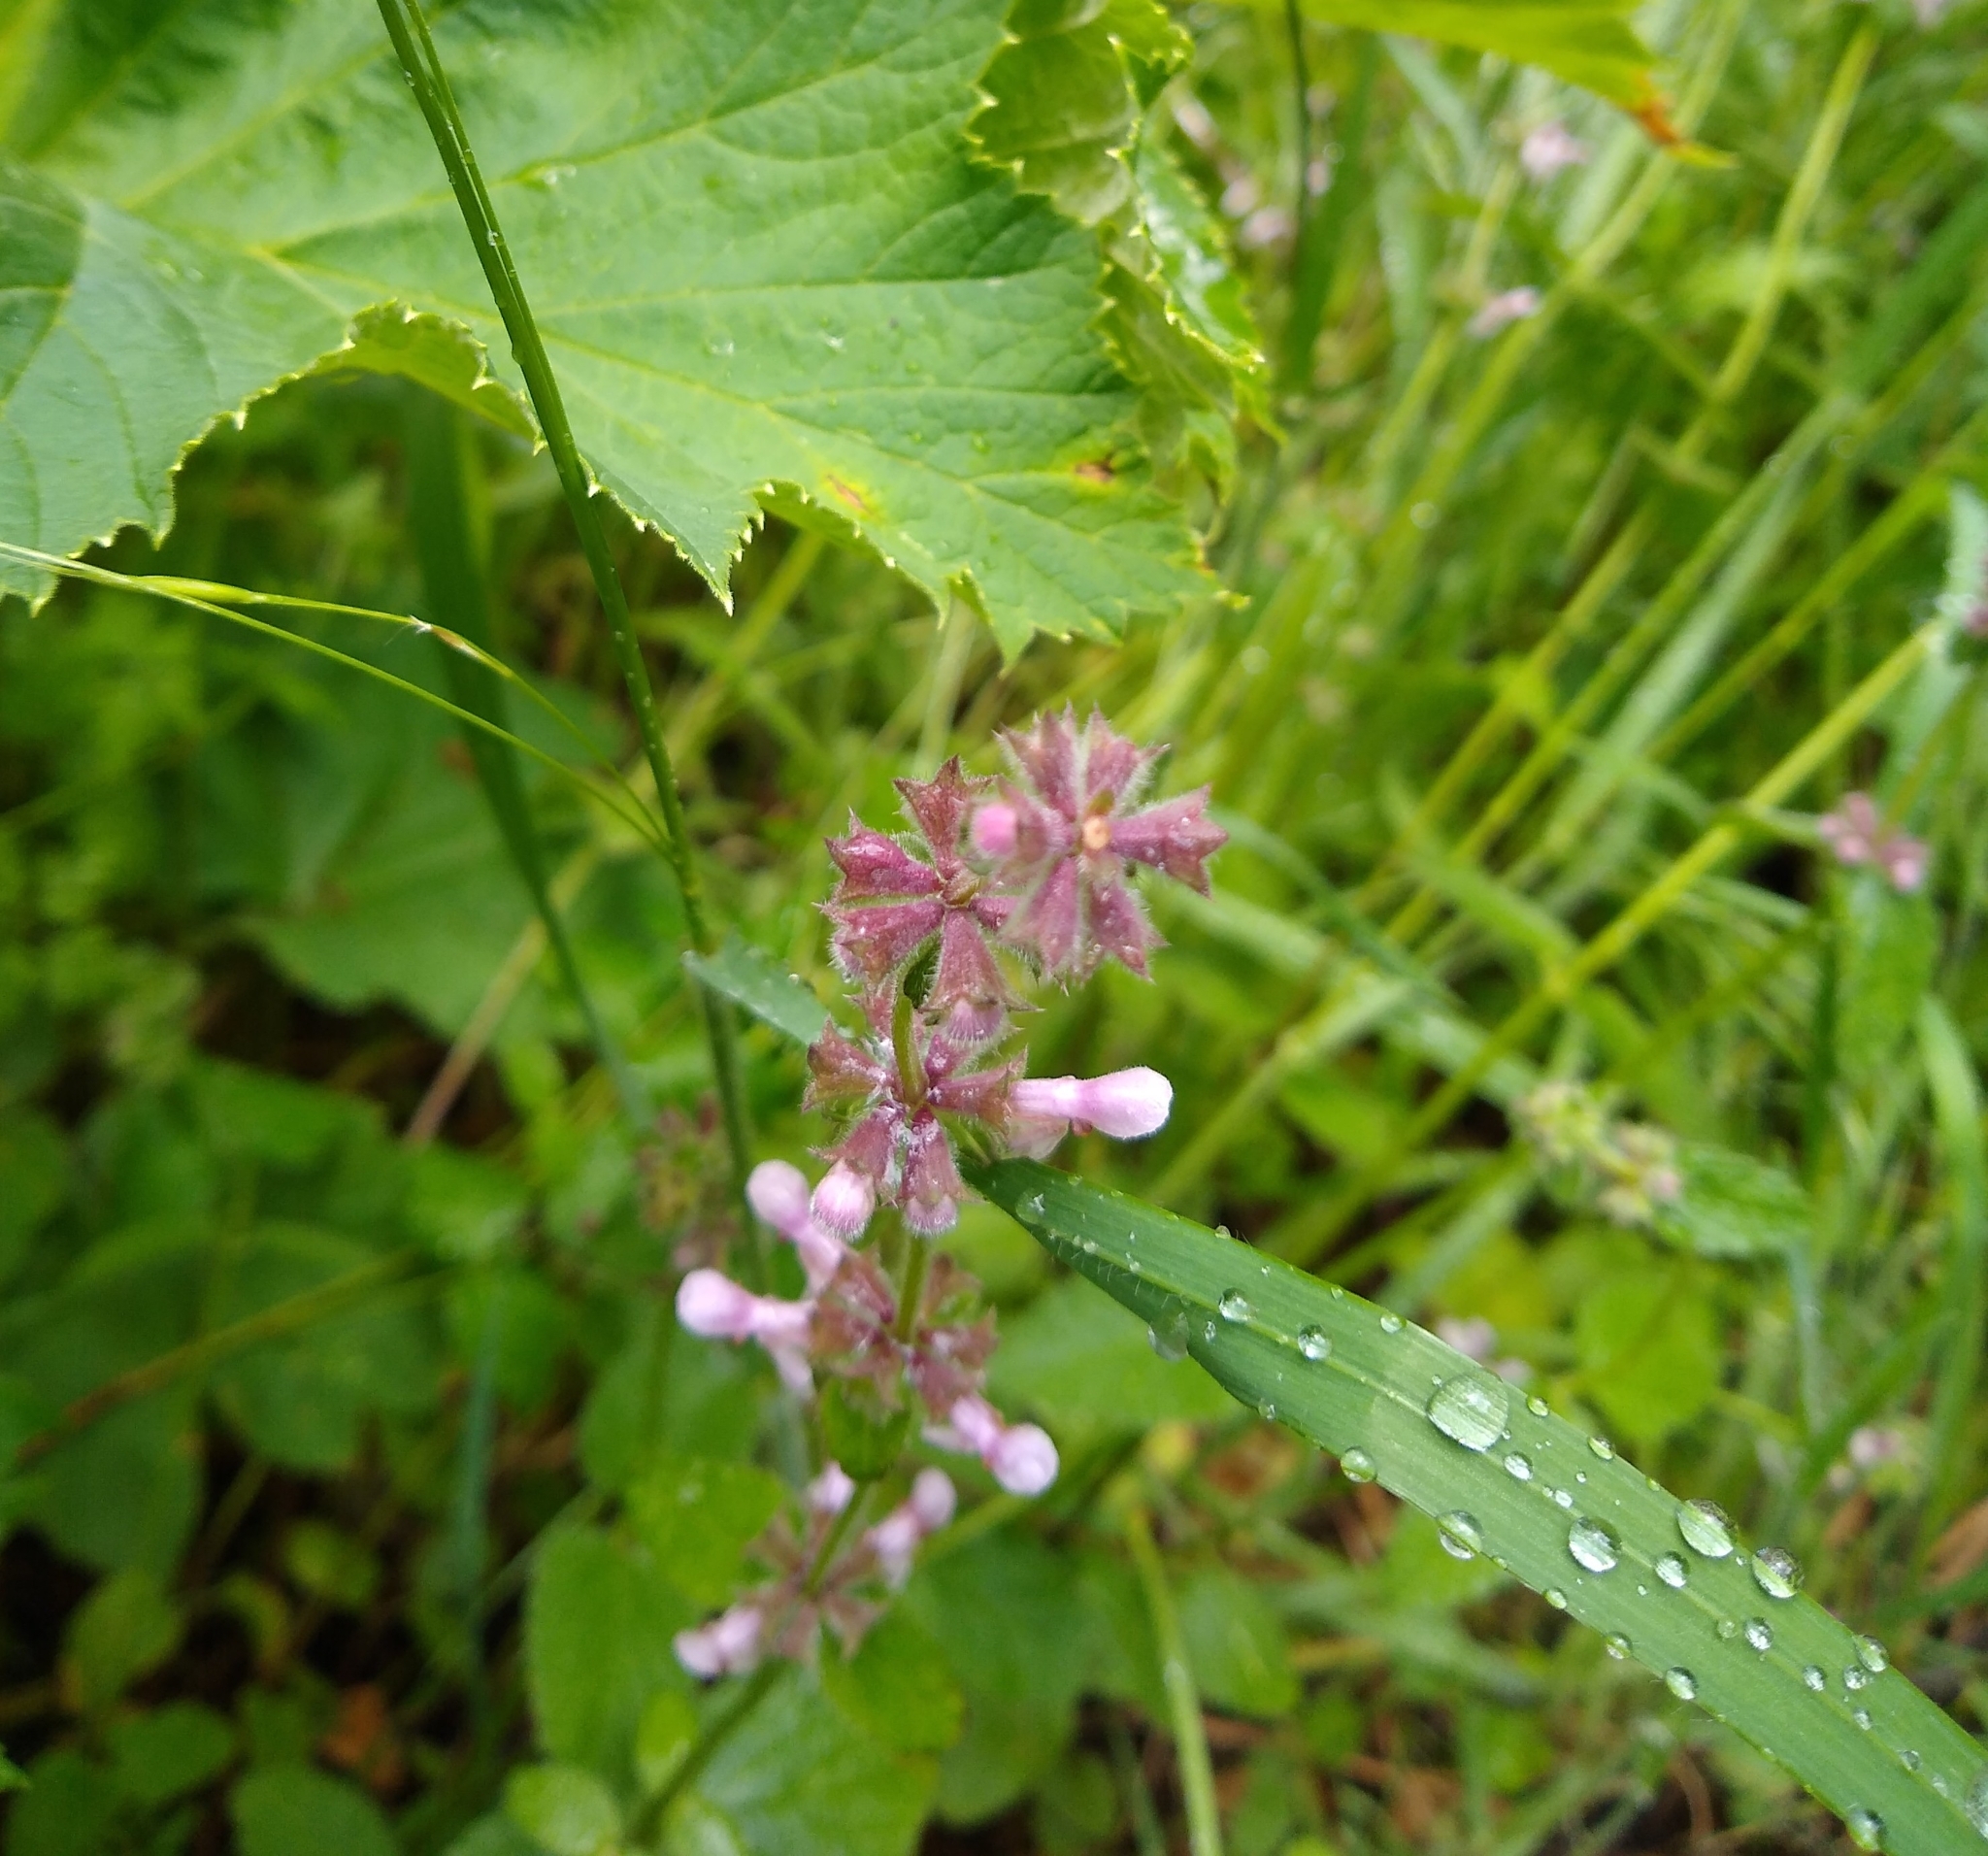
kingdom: Plantae
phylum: Tracheophyta
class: Magnoliopsida
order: Lamiales
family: Lamiaceae
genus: Stachys
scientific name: Stachys rigida
